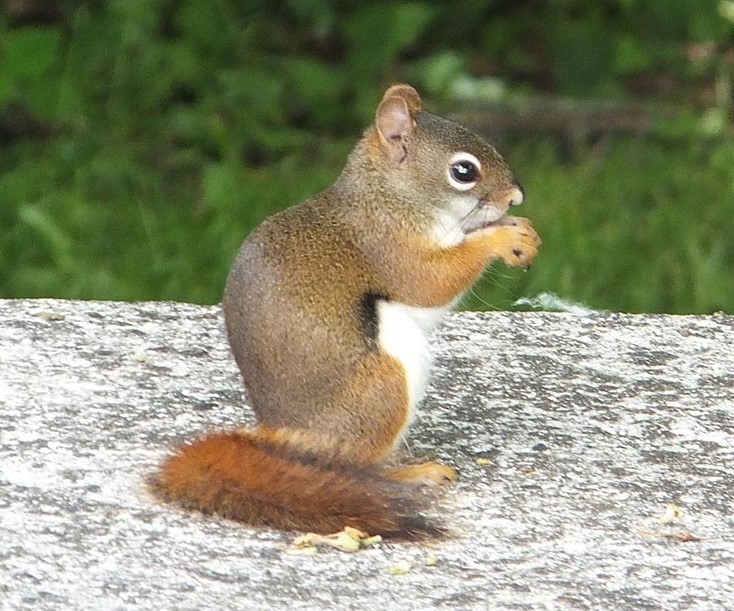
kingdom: Animalia
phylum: Chordata
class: Mammalia
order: Rodentia
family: Sciuridae
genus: Tamiasciurus
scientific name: Tamiasciurus hudsonicus
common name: Red squirrel
